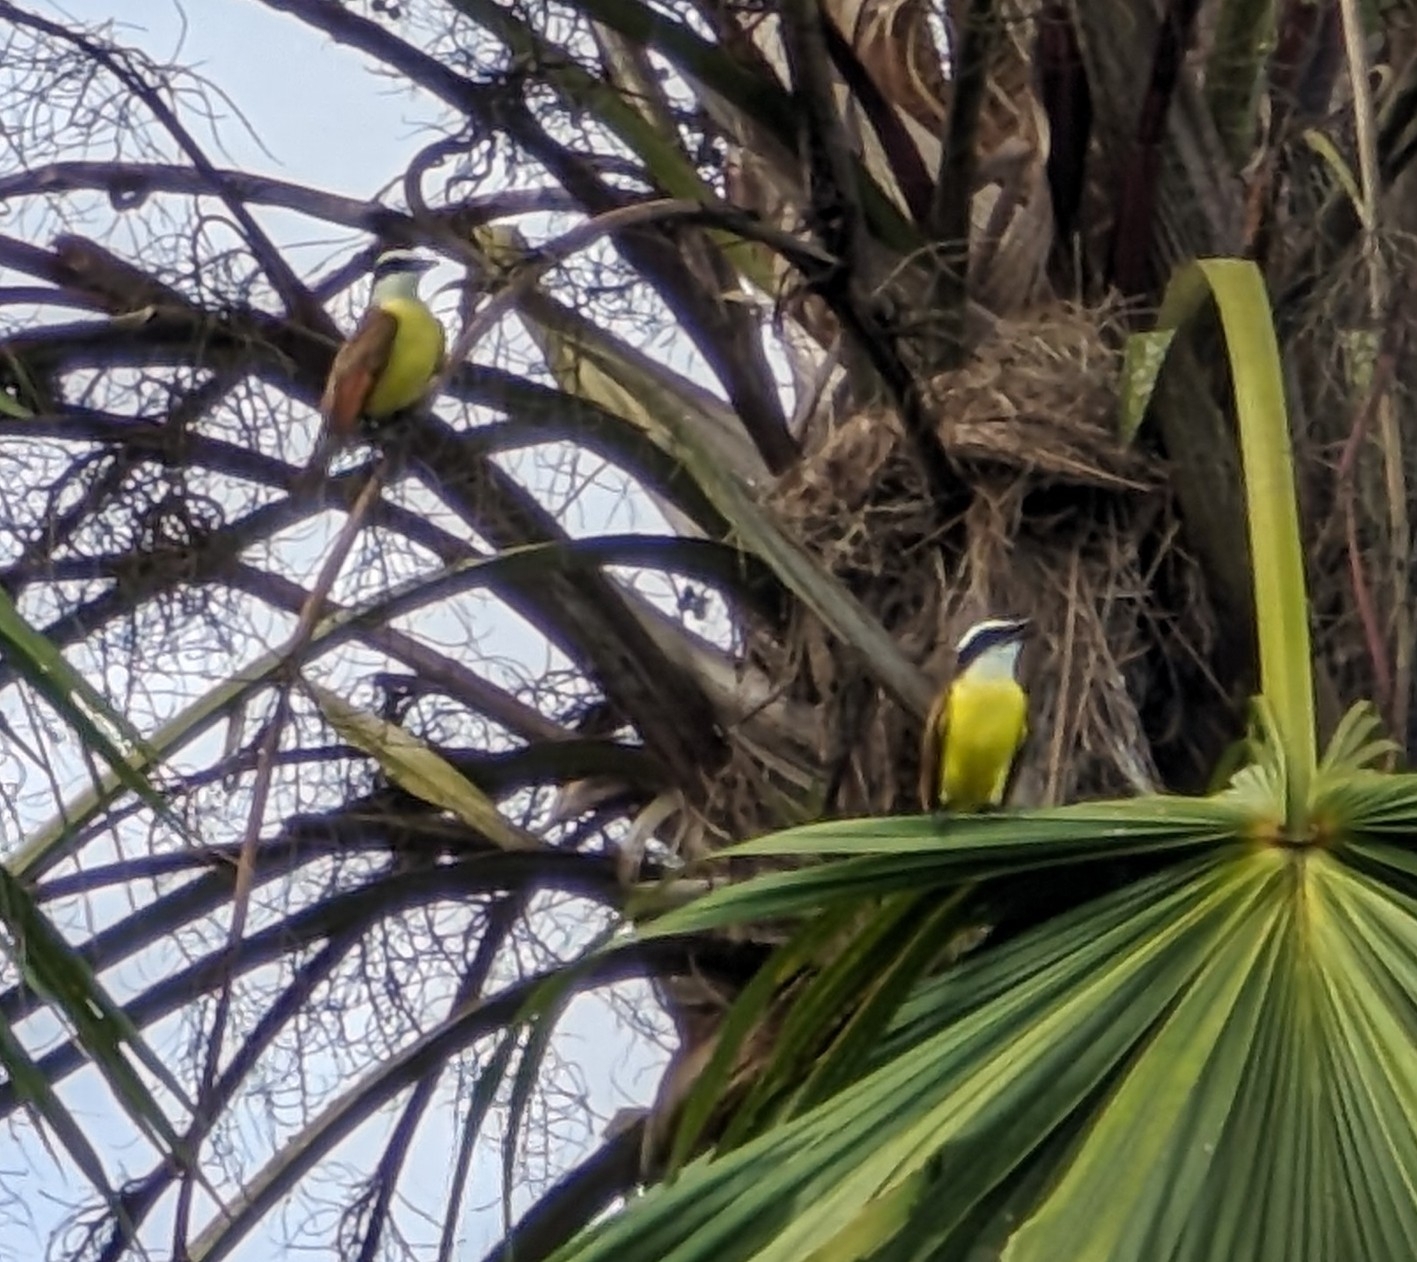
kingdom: Animalia
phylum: Chordata
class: Aves
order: Passeriformes
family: Tyrannidae
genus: Pitangus
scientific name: Pitangus sulphuratus
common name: Great kiskadee
